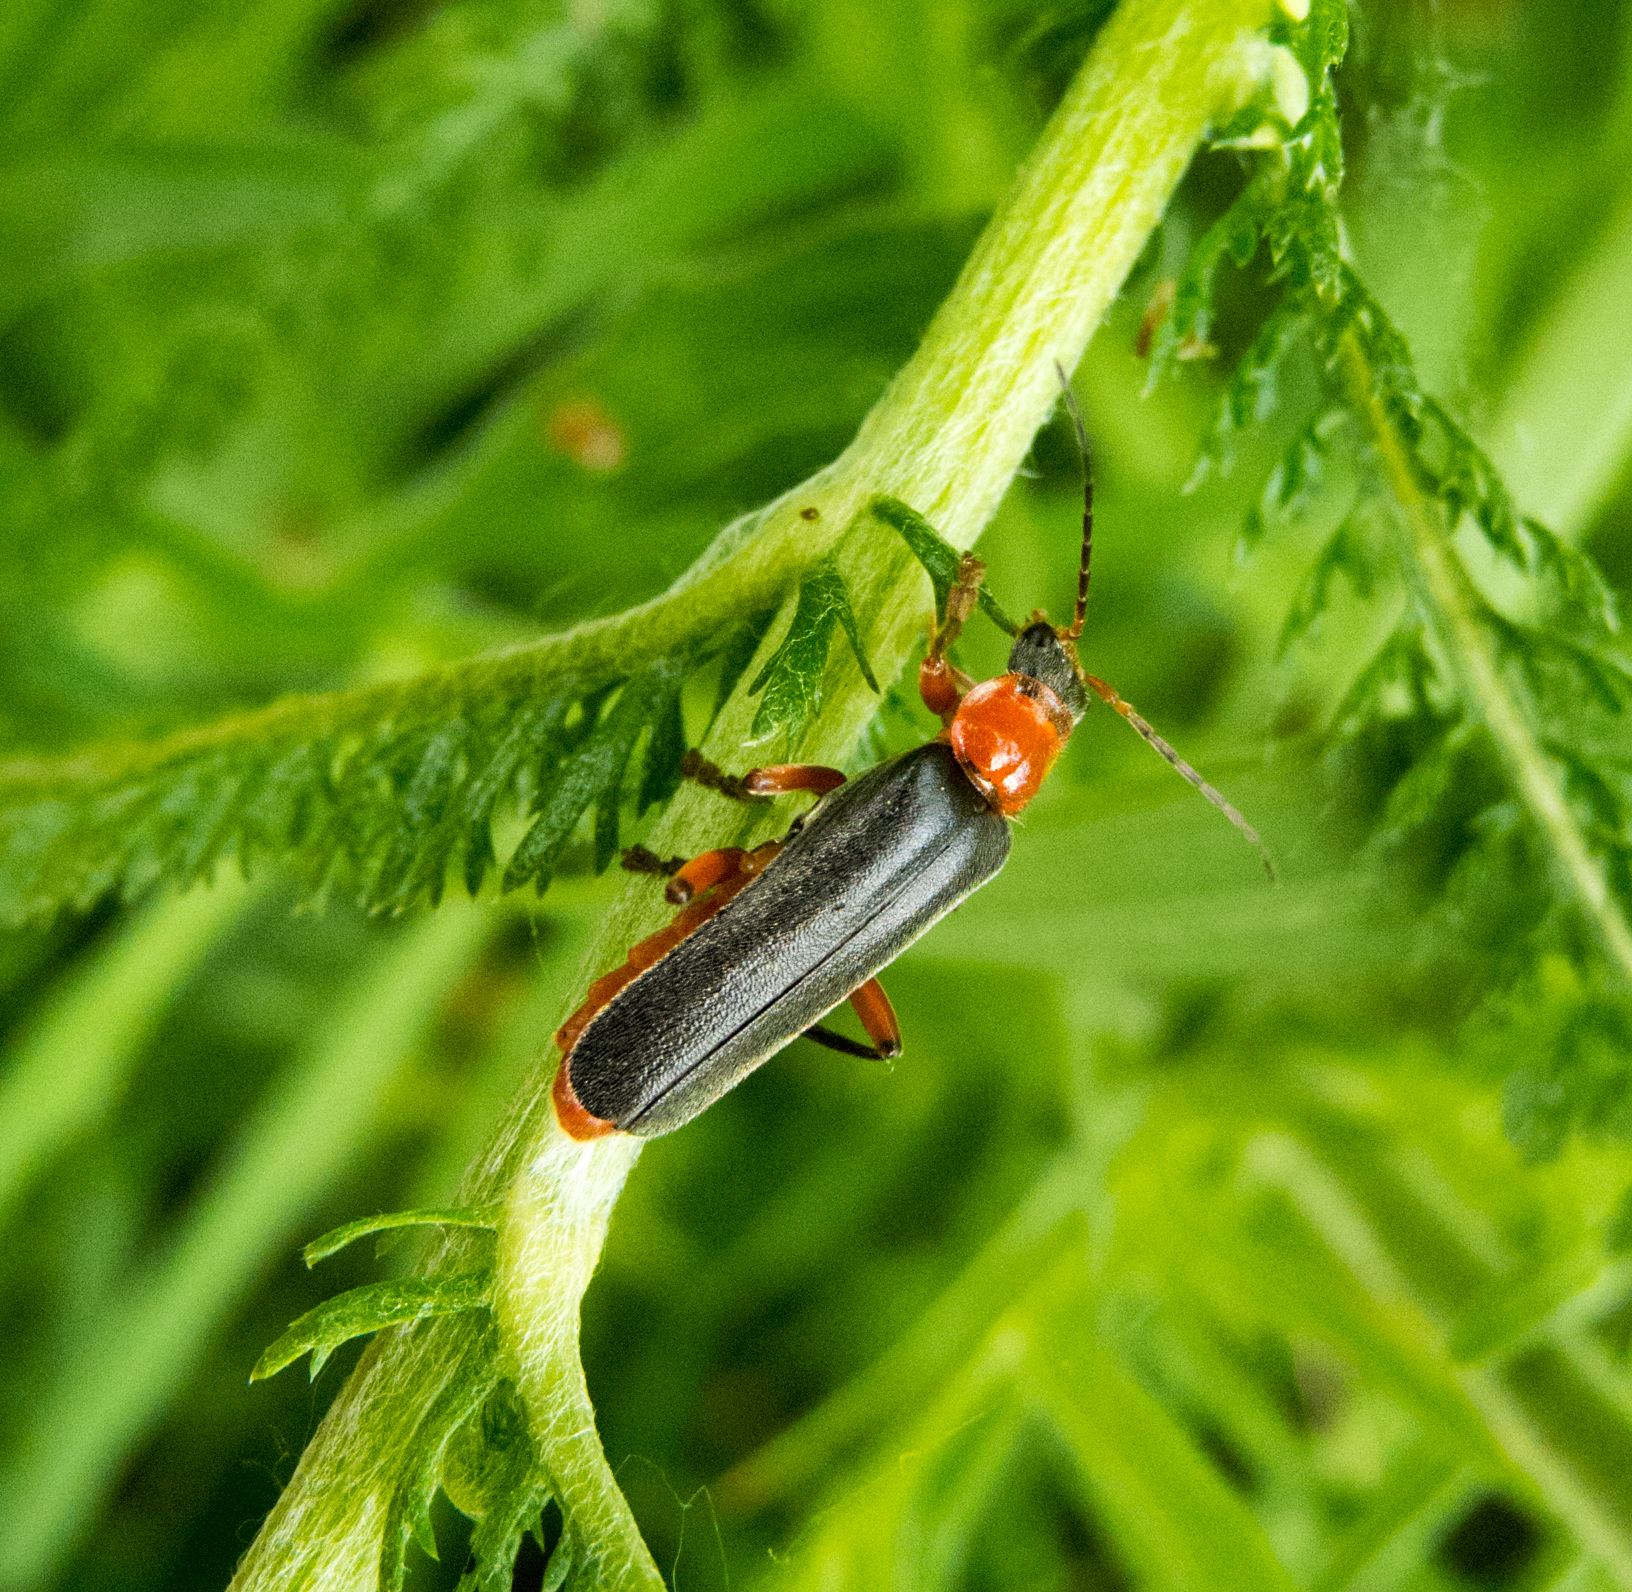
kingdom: Animalia
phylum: Arthropoda
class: Insecta
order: Coleoptera
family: Cantharidae
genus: Cantharis
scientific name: Cantharis pellucida
